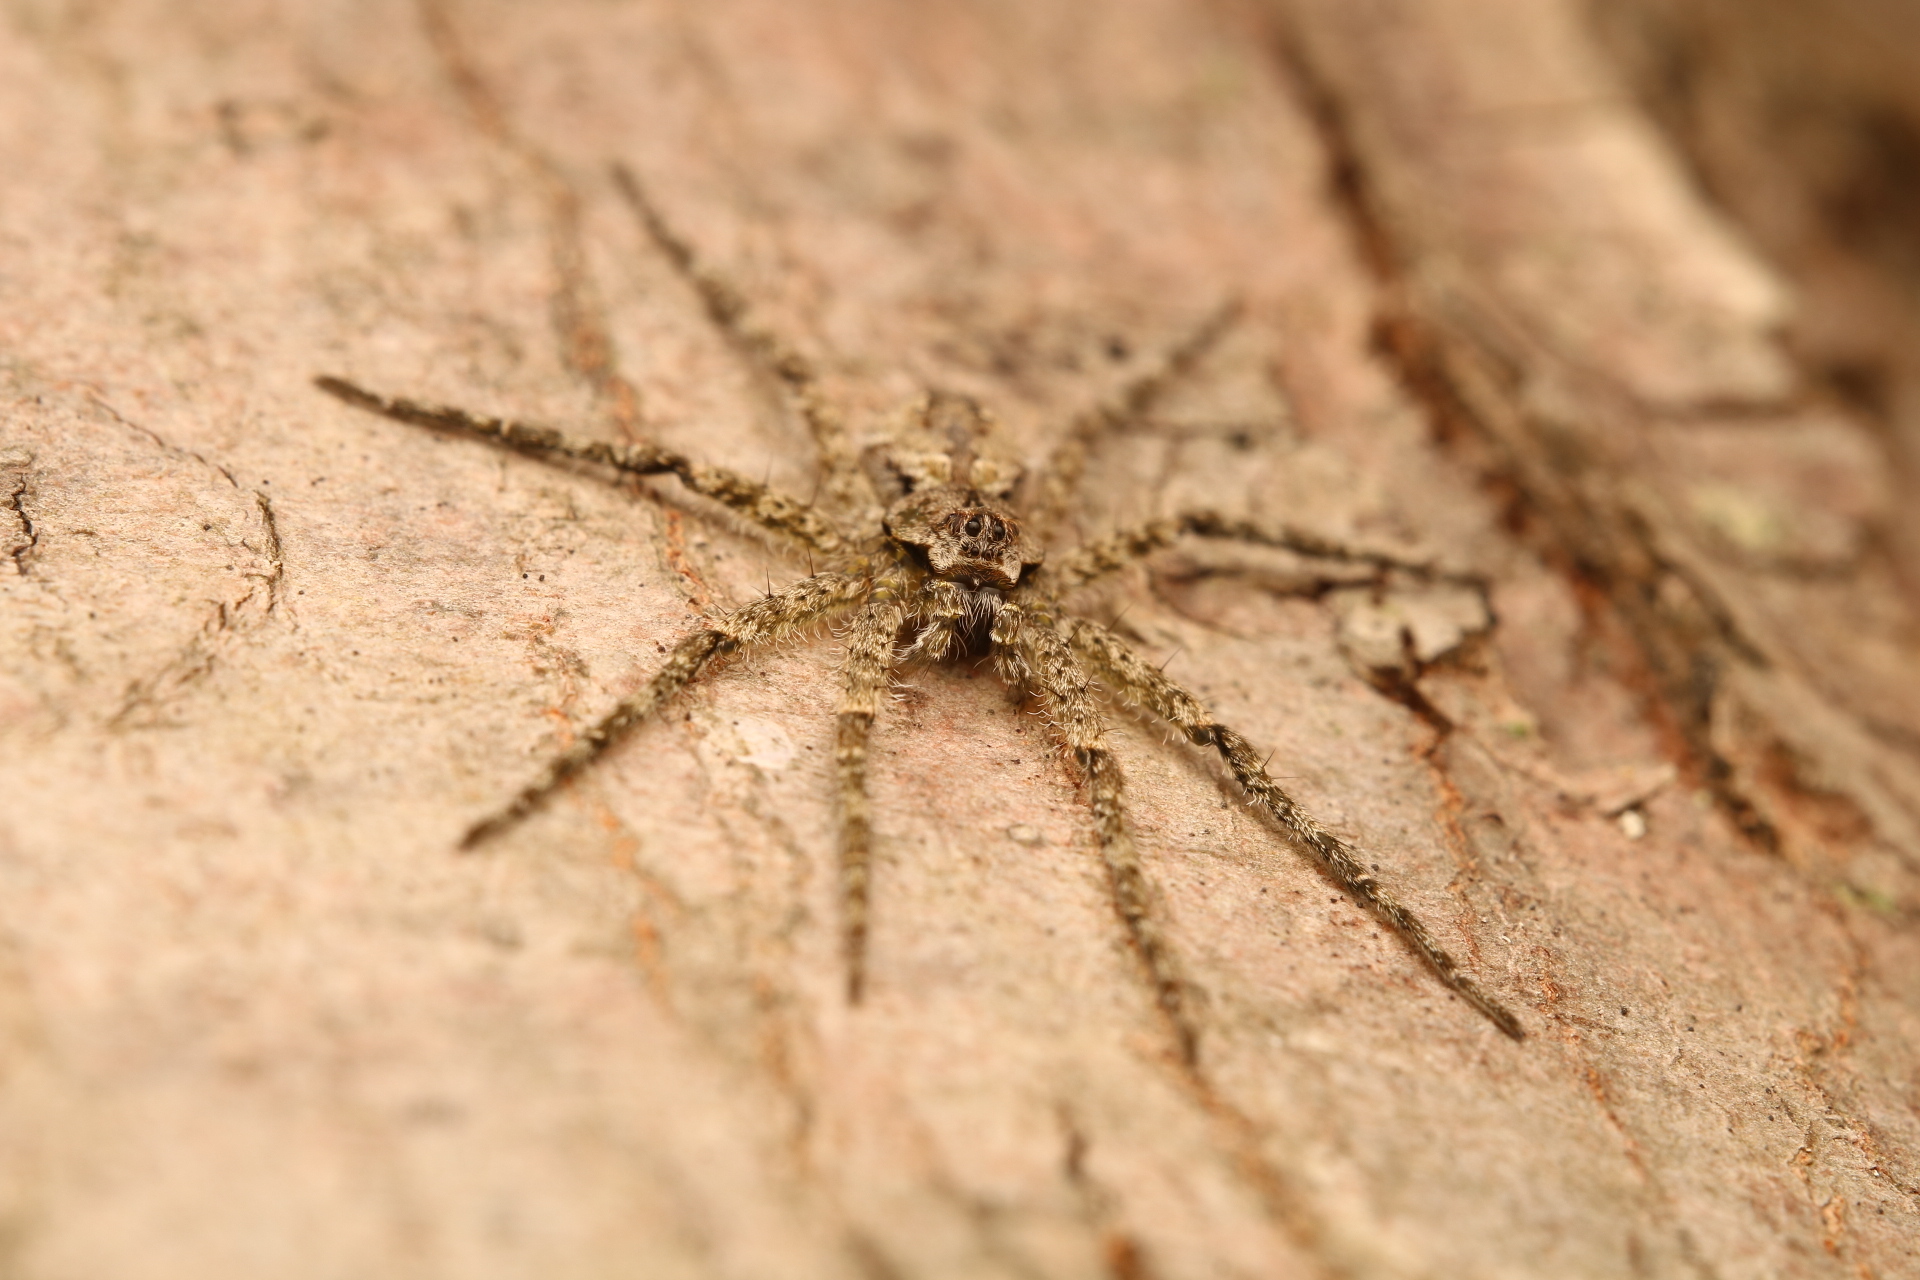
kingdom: Animalia
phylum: Arthropoda
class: Arachnida
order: Araneae
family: Pisauridae
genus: Dolomedes
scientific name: Dolomedes albineus
